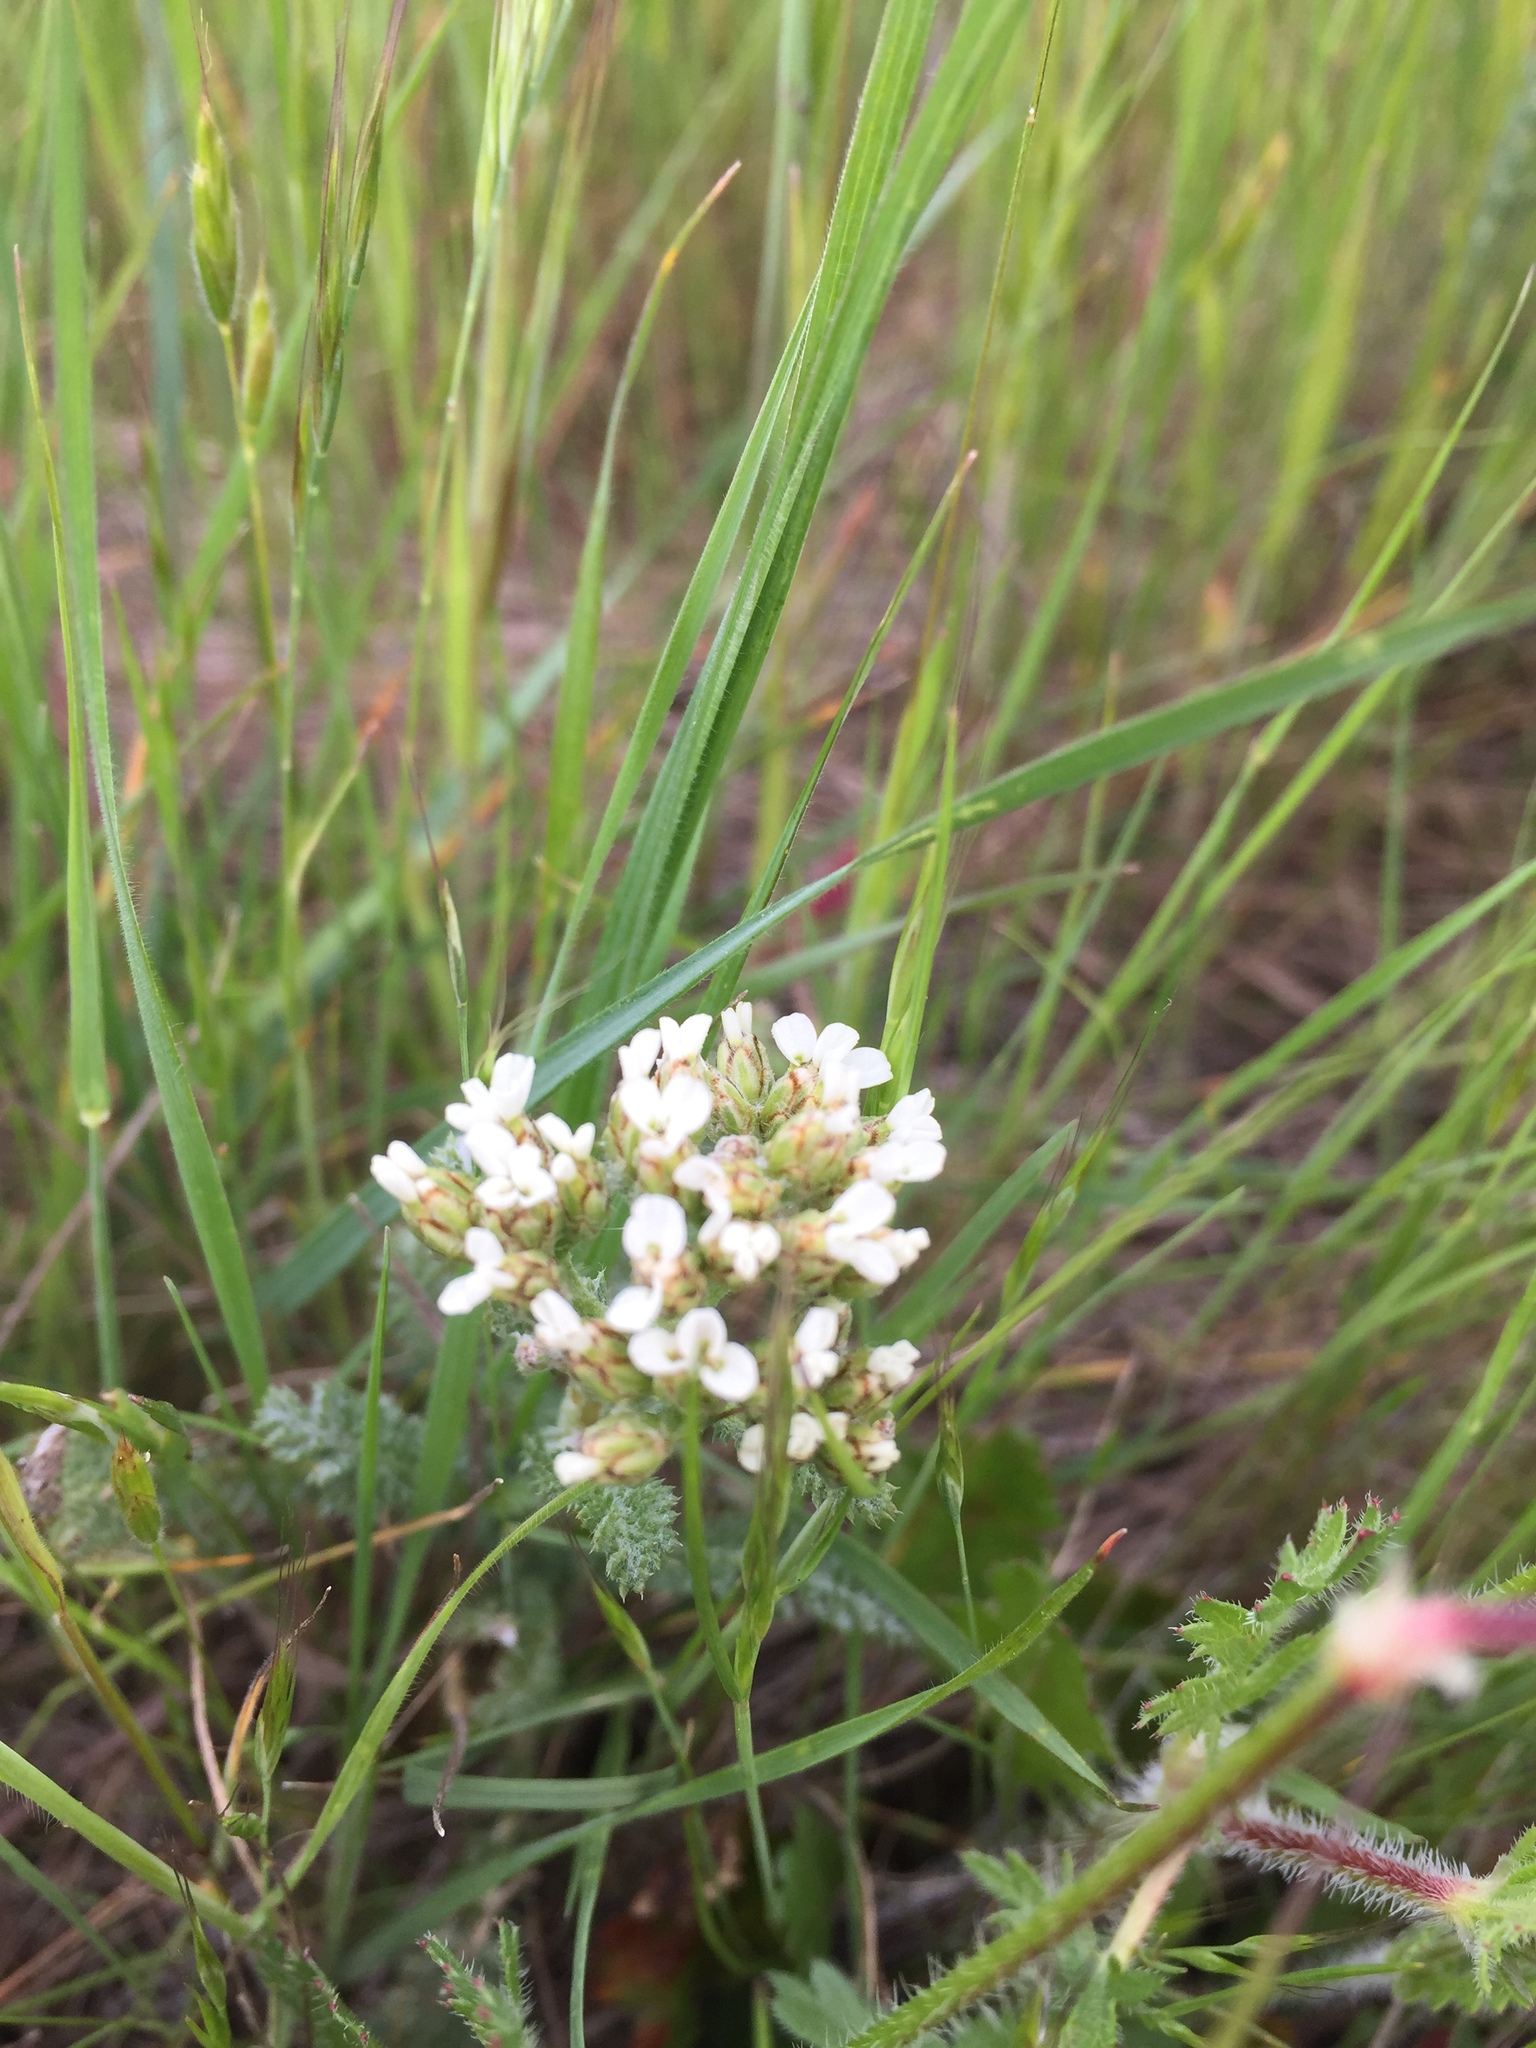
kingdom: Plantae
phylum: Tracheophyta
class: Magnoliopsida
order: Asterales
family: Asteraceae
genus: Achillea
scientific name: Achillea millefolium
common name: Yarrow
